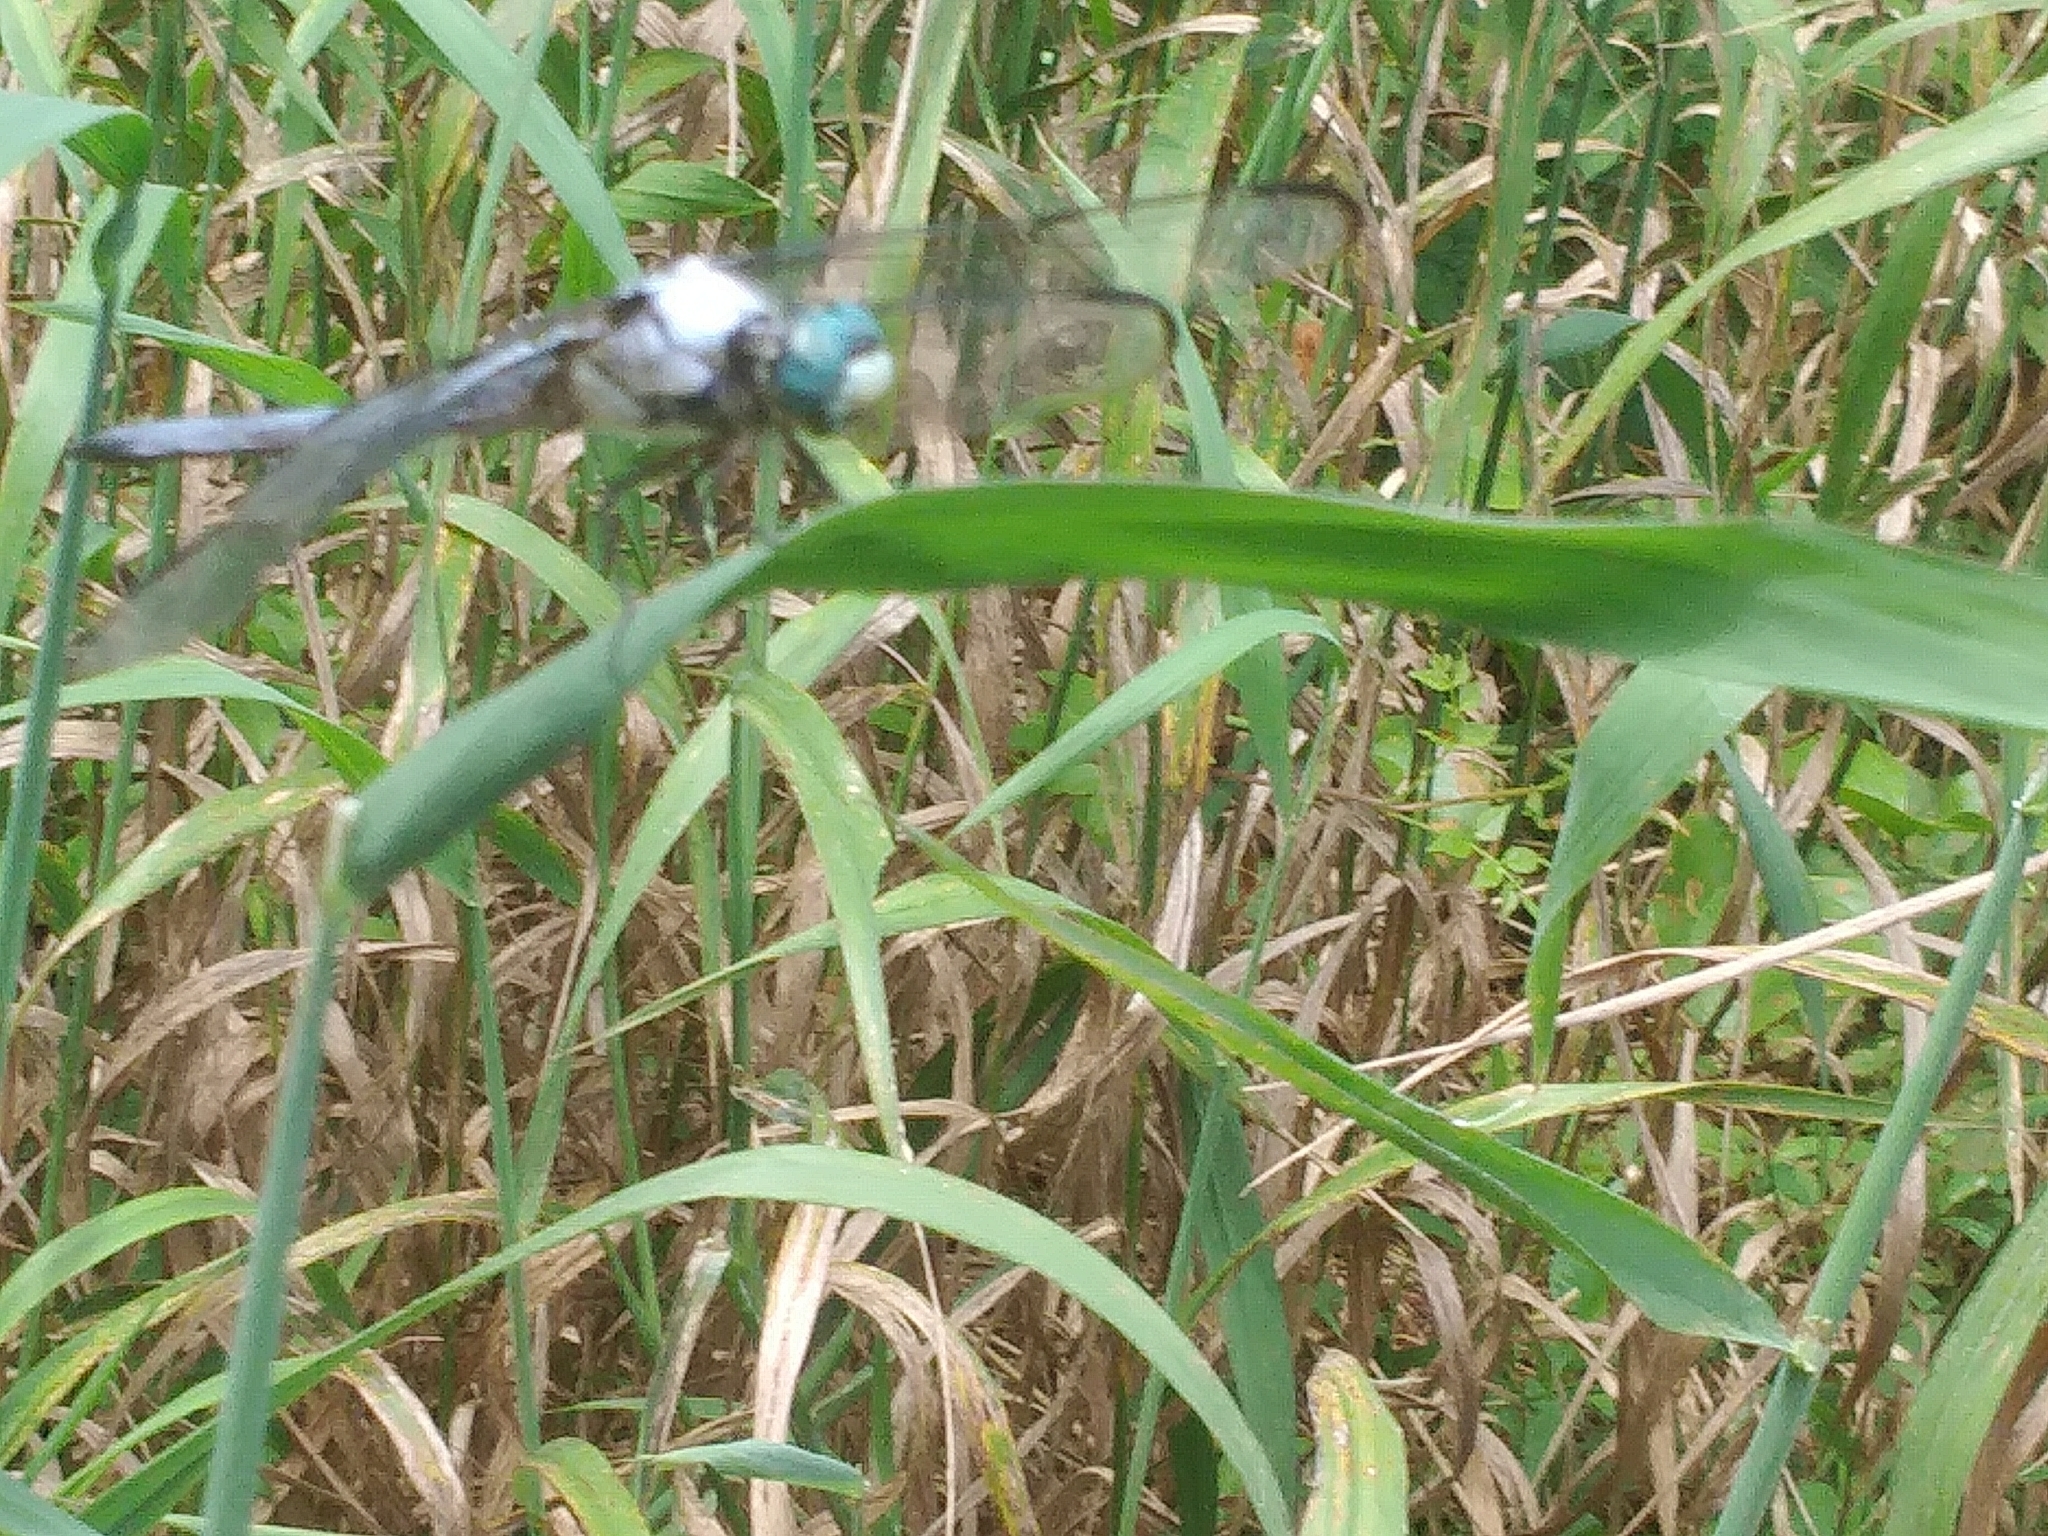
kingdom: Animalia
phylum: Arthropoda
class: Insecta
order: Odonata
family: Libellulidae
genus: Libellula
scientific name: Libellula vibrans
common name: Great blue skimmer
